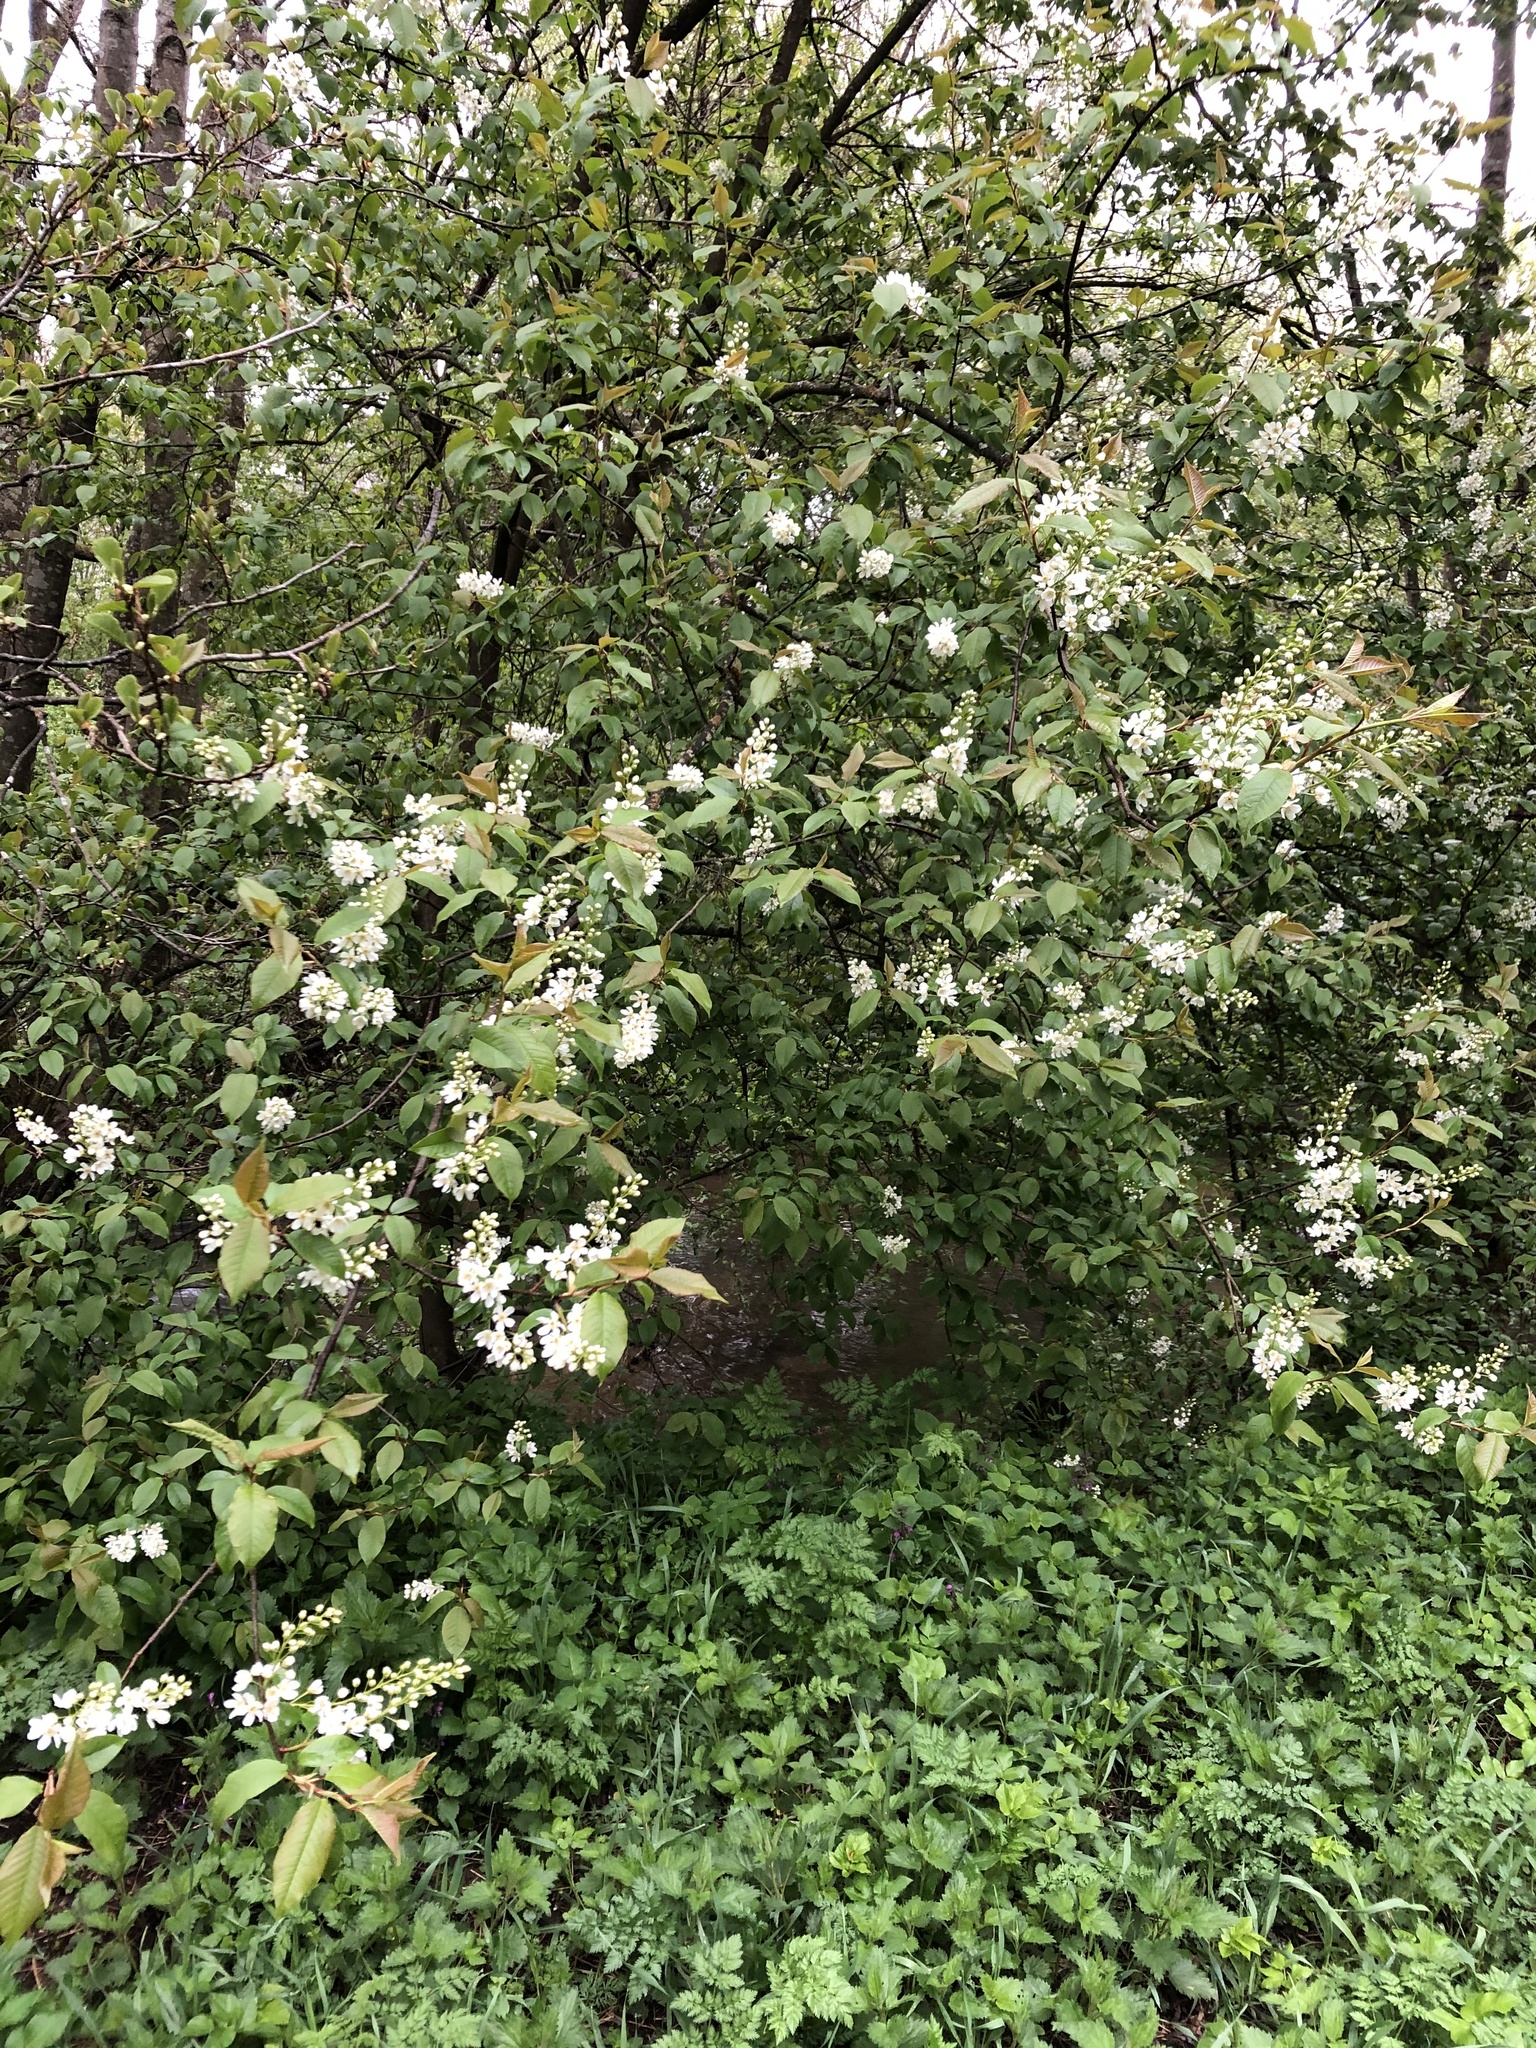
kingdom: Plantae
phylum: Tracheophyta
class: Magnoliopsida
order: Rosales
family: Rosaceae
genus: Prunus
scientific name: Prunus padus
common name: Bird cherry
